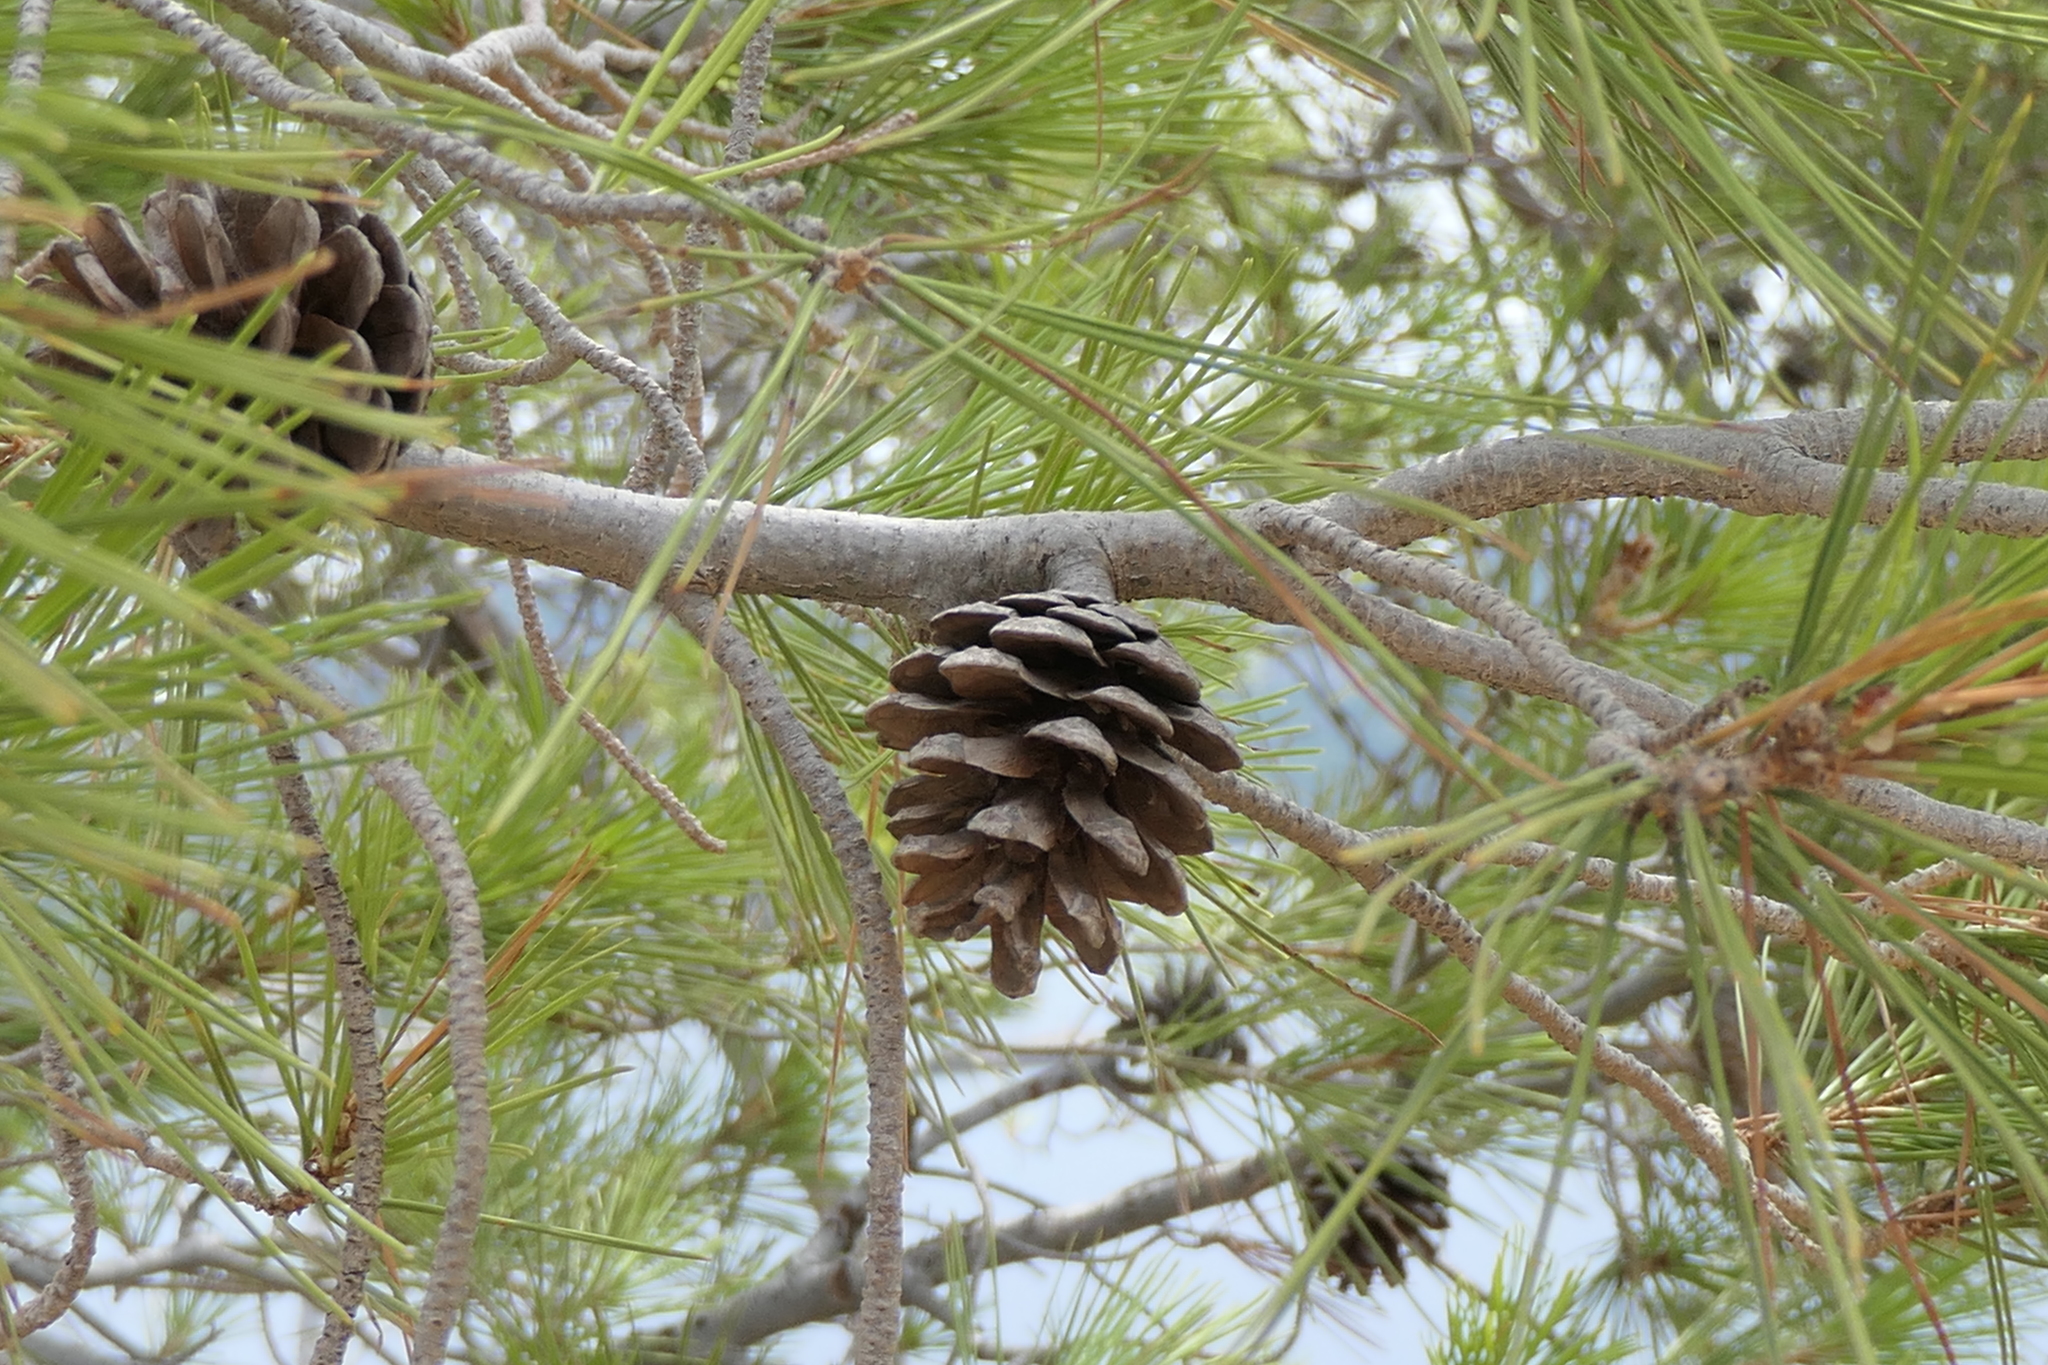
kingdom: Plantae
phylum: Tracheophyta
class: Pinopsida
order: Pinales
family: Pinaceae
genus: Pinus
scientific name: Pinus halepensis
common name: Aleppo pine
